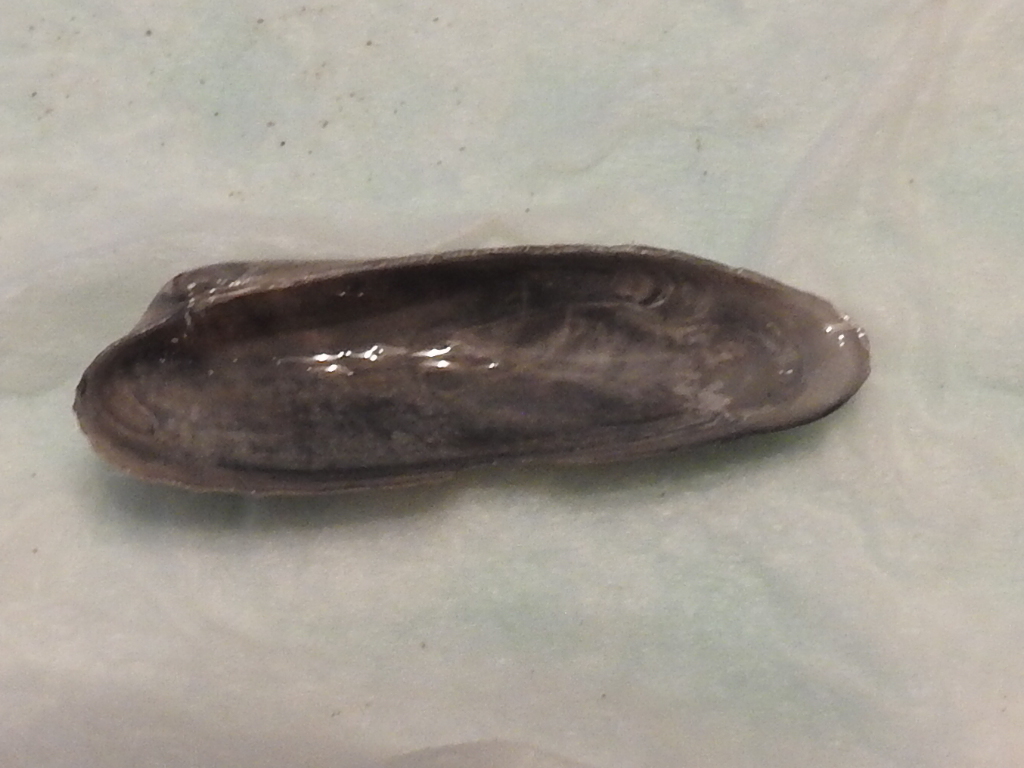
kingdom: Animalia
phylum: Mollusca
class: Bivalvia
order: Venerida
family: Veneridae
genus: Petricolaria
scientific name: Petricolaria pholadiformis
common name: American piddock
